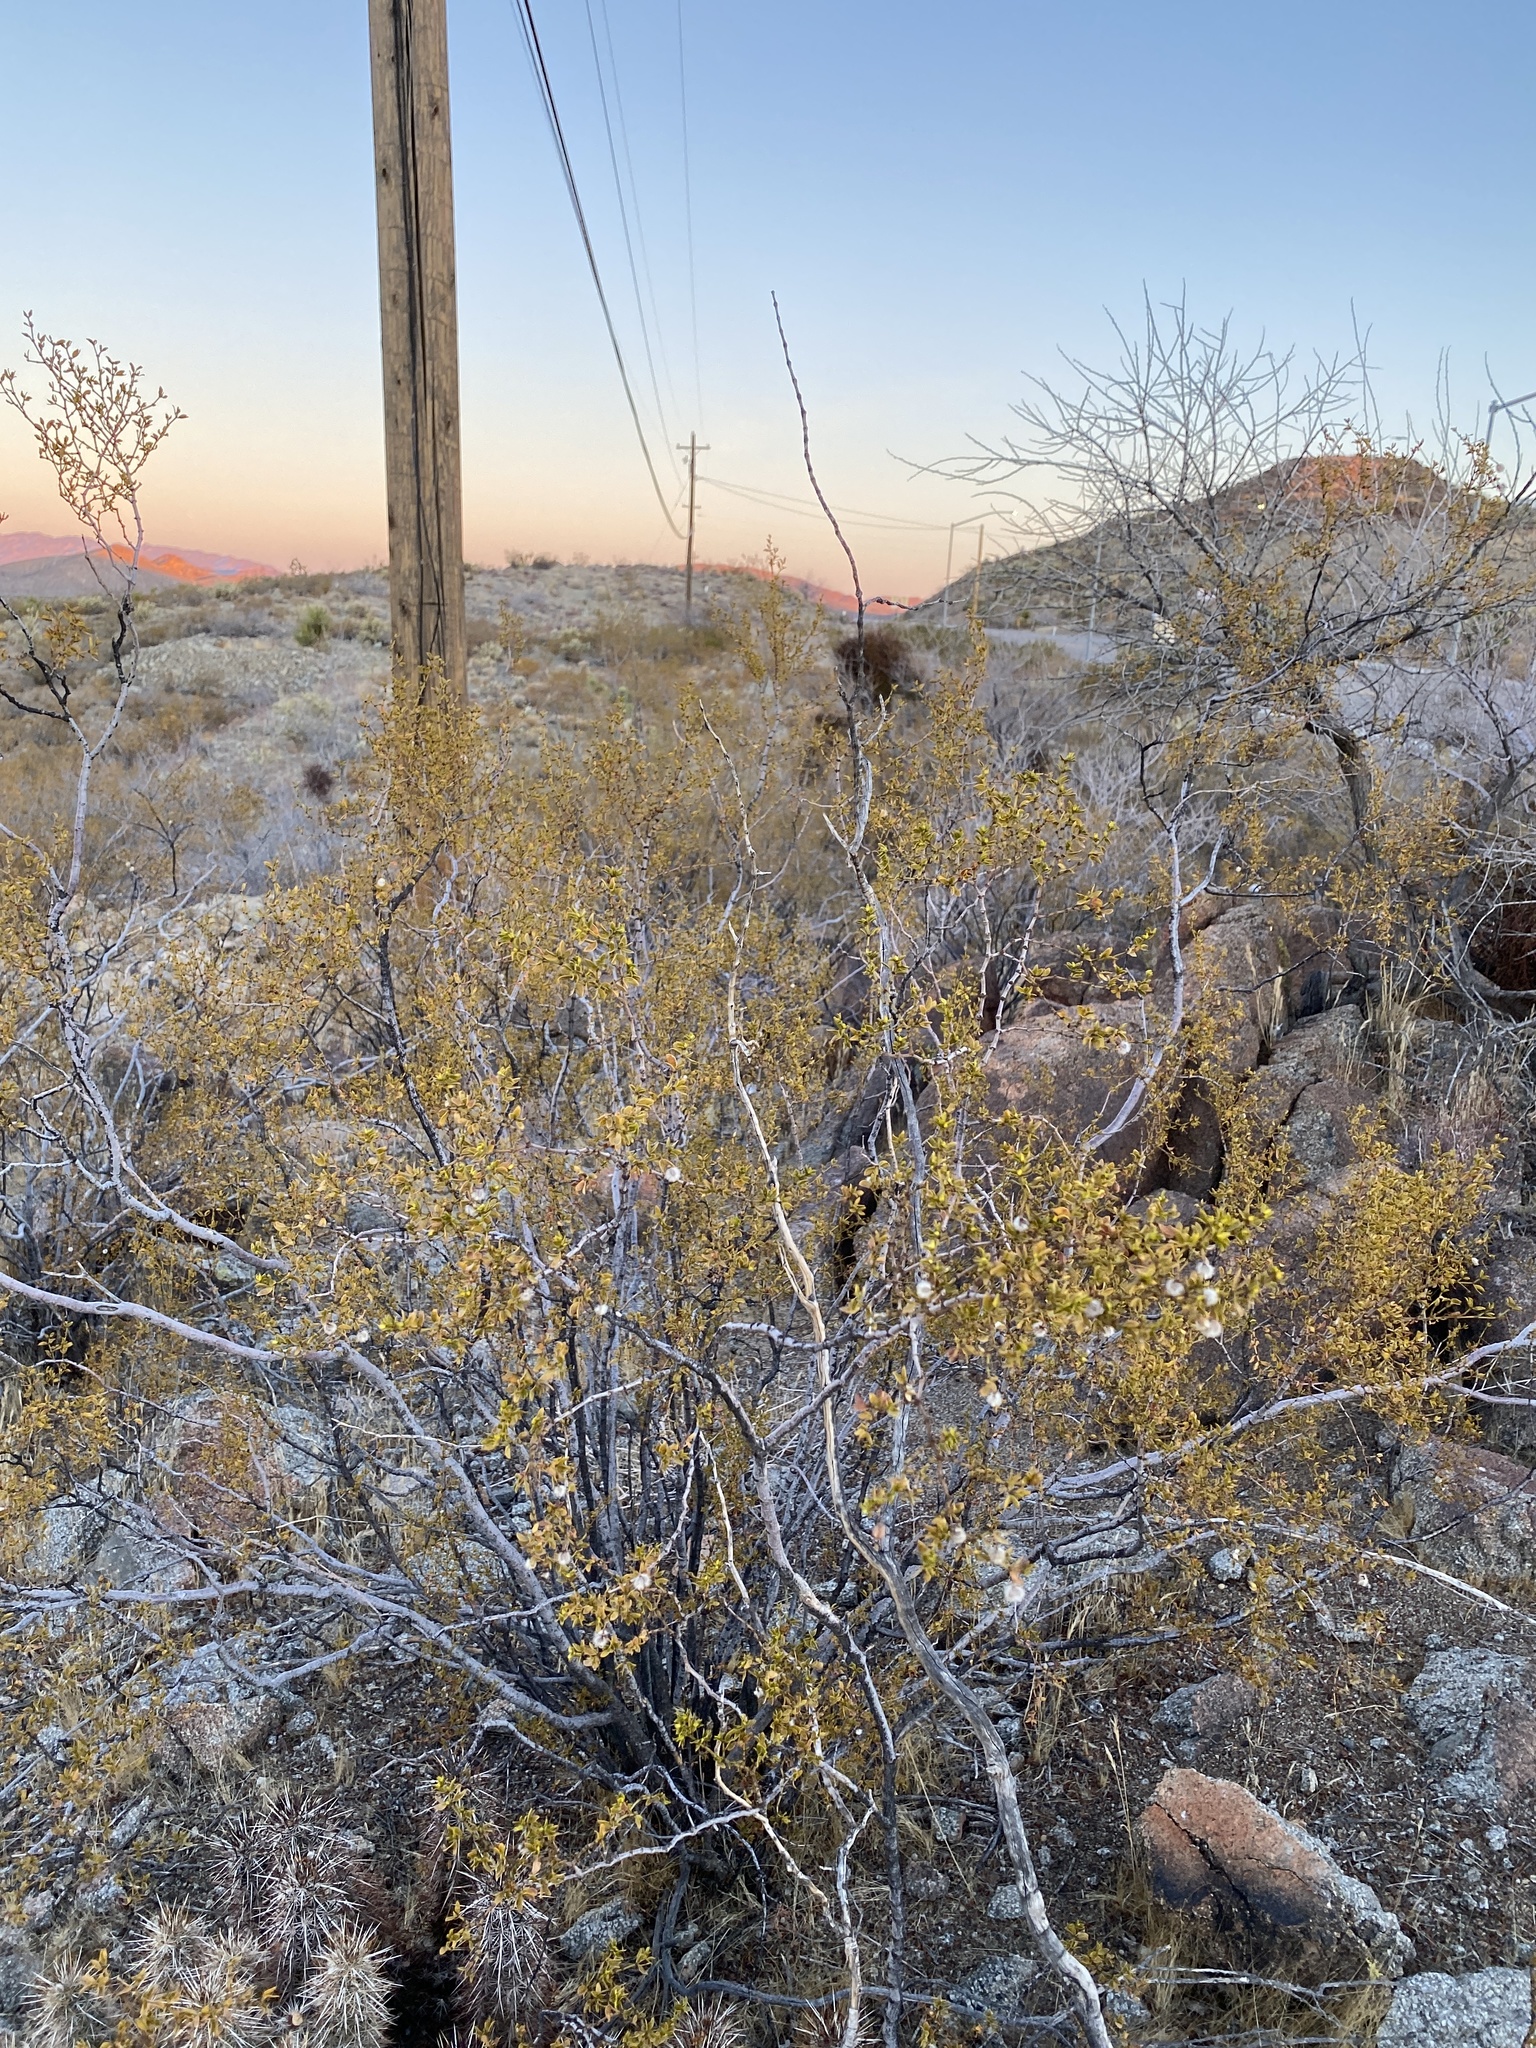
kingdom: Plantae
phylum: Tracheophyta
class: Magnoliopsida
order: Zygophyllales
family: Zygophyllaceae
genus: Larrea
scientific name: Larrea tridentata
